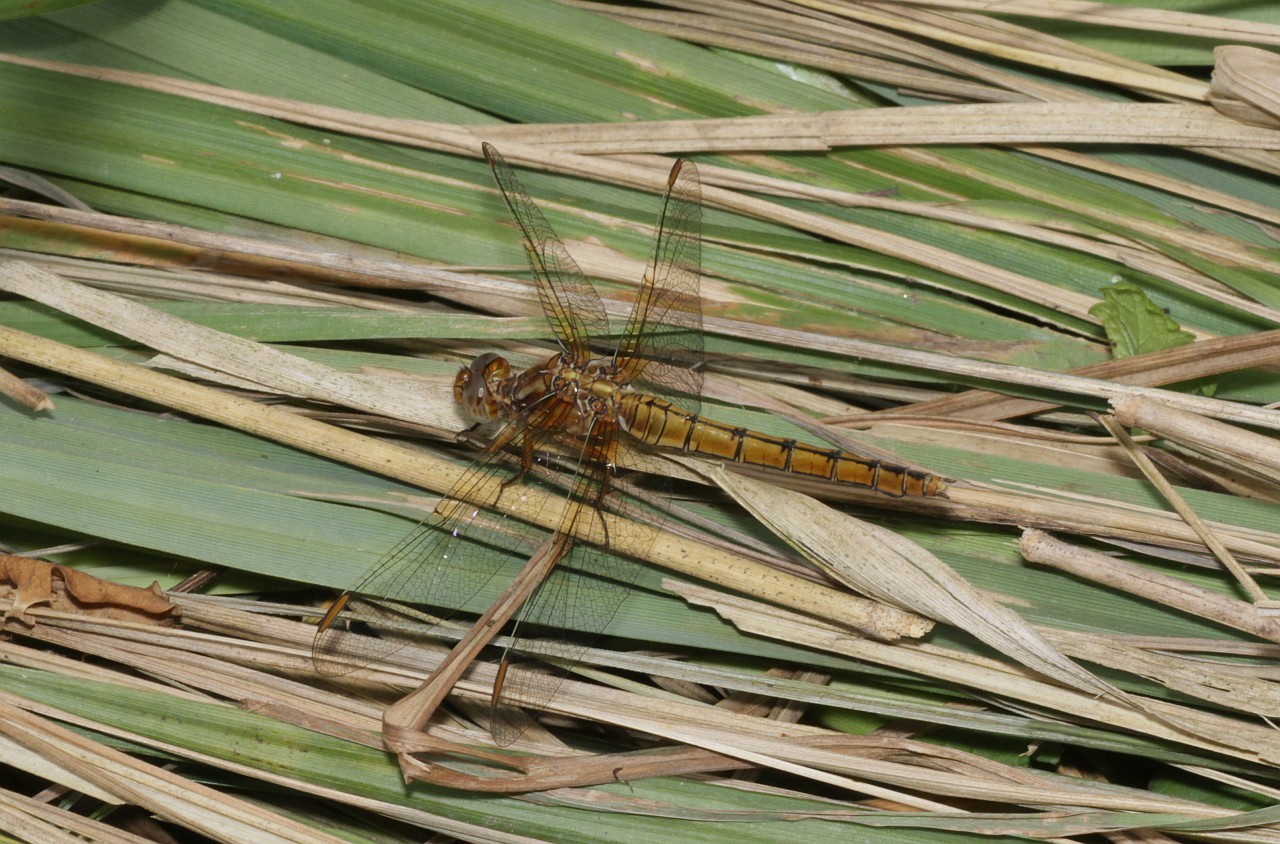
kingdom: Animalia
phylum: Arthropoda
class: Insecta
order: Odonata
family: Libellulidae
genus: Orthetrum
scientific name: Orthetrum coerulescens
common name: Keeled skimmer
